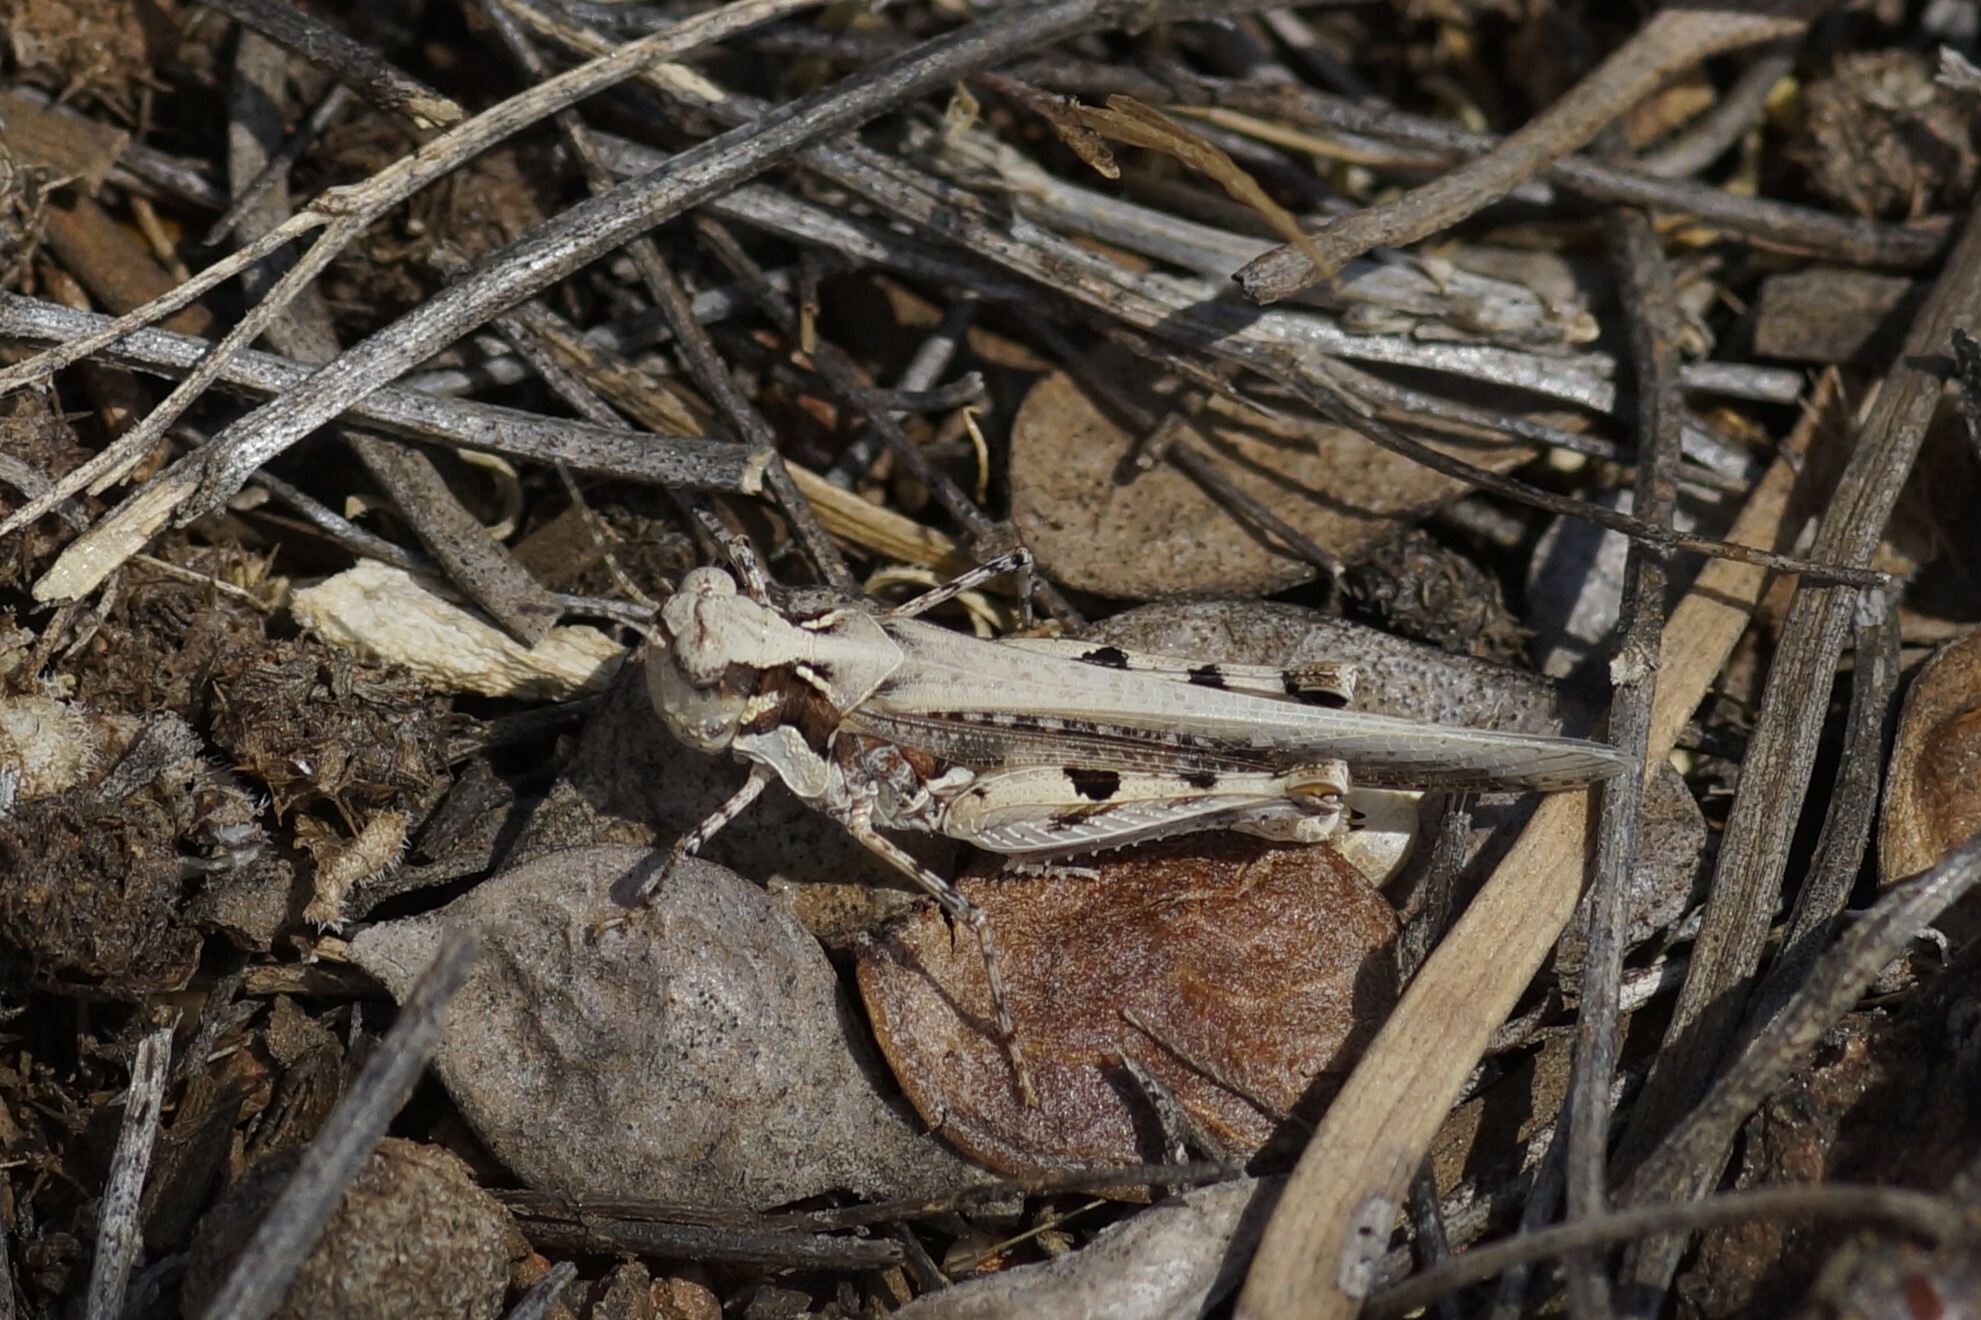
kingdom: Animalia
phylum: Arthropoda
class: Insecta
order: Orthoptera
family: Acrididae
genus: Pycnostictus
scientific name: Pycnostictus seriatus
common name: Common bandwing
